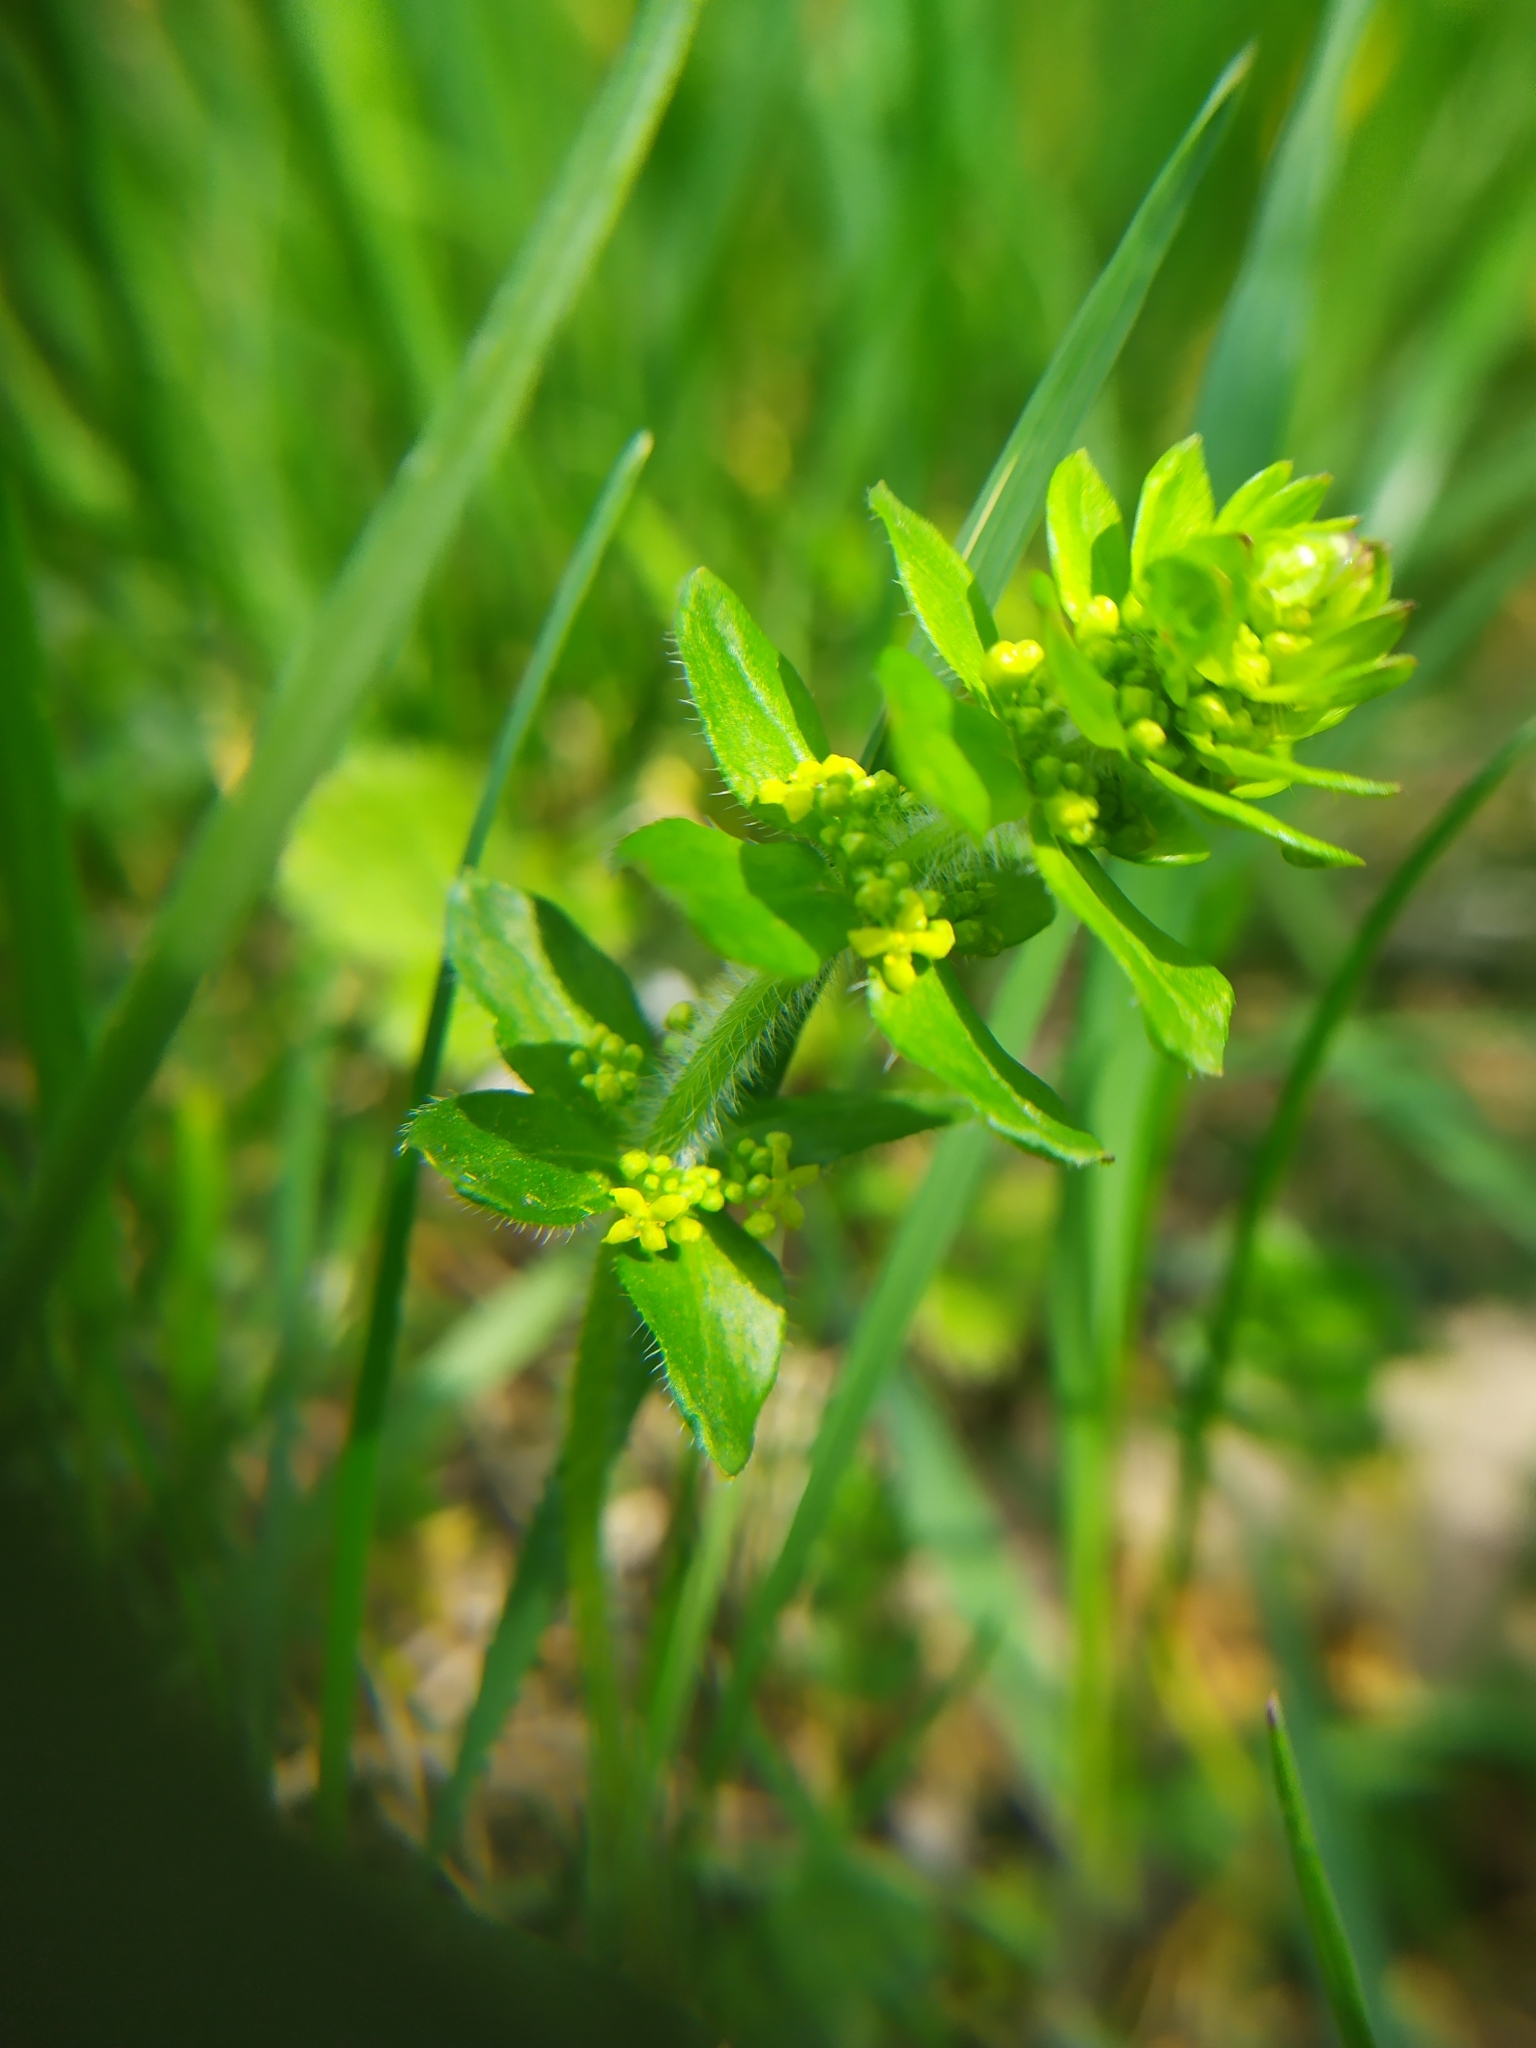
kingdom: Plantae
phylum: Tracheophyta
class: Magnoliopsida
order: Gentianales
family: Rubiaceae
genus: Cruciata
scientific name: Cruciata laevipes
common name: Crosswort
